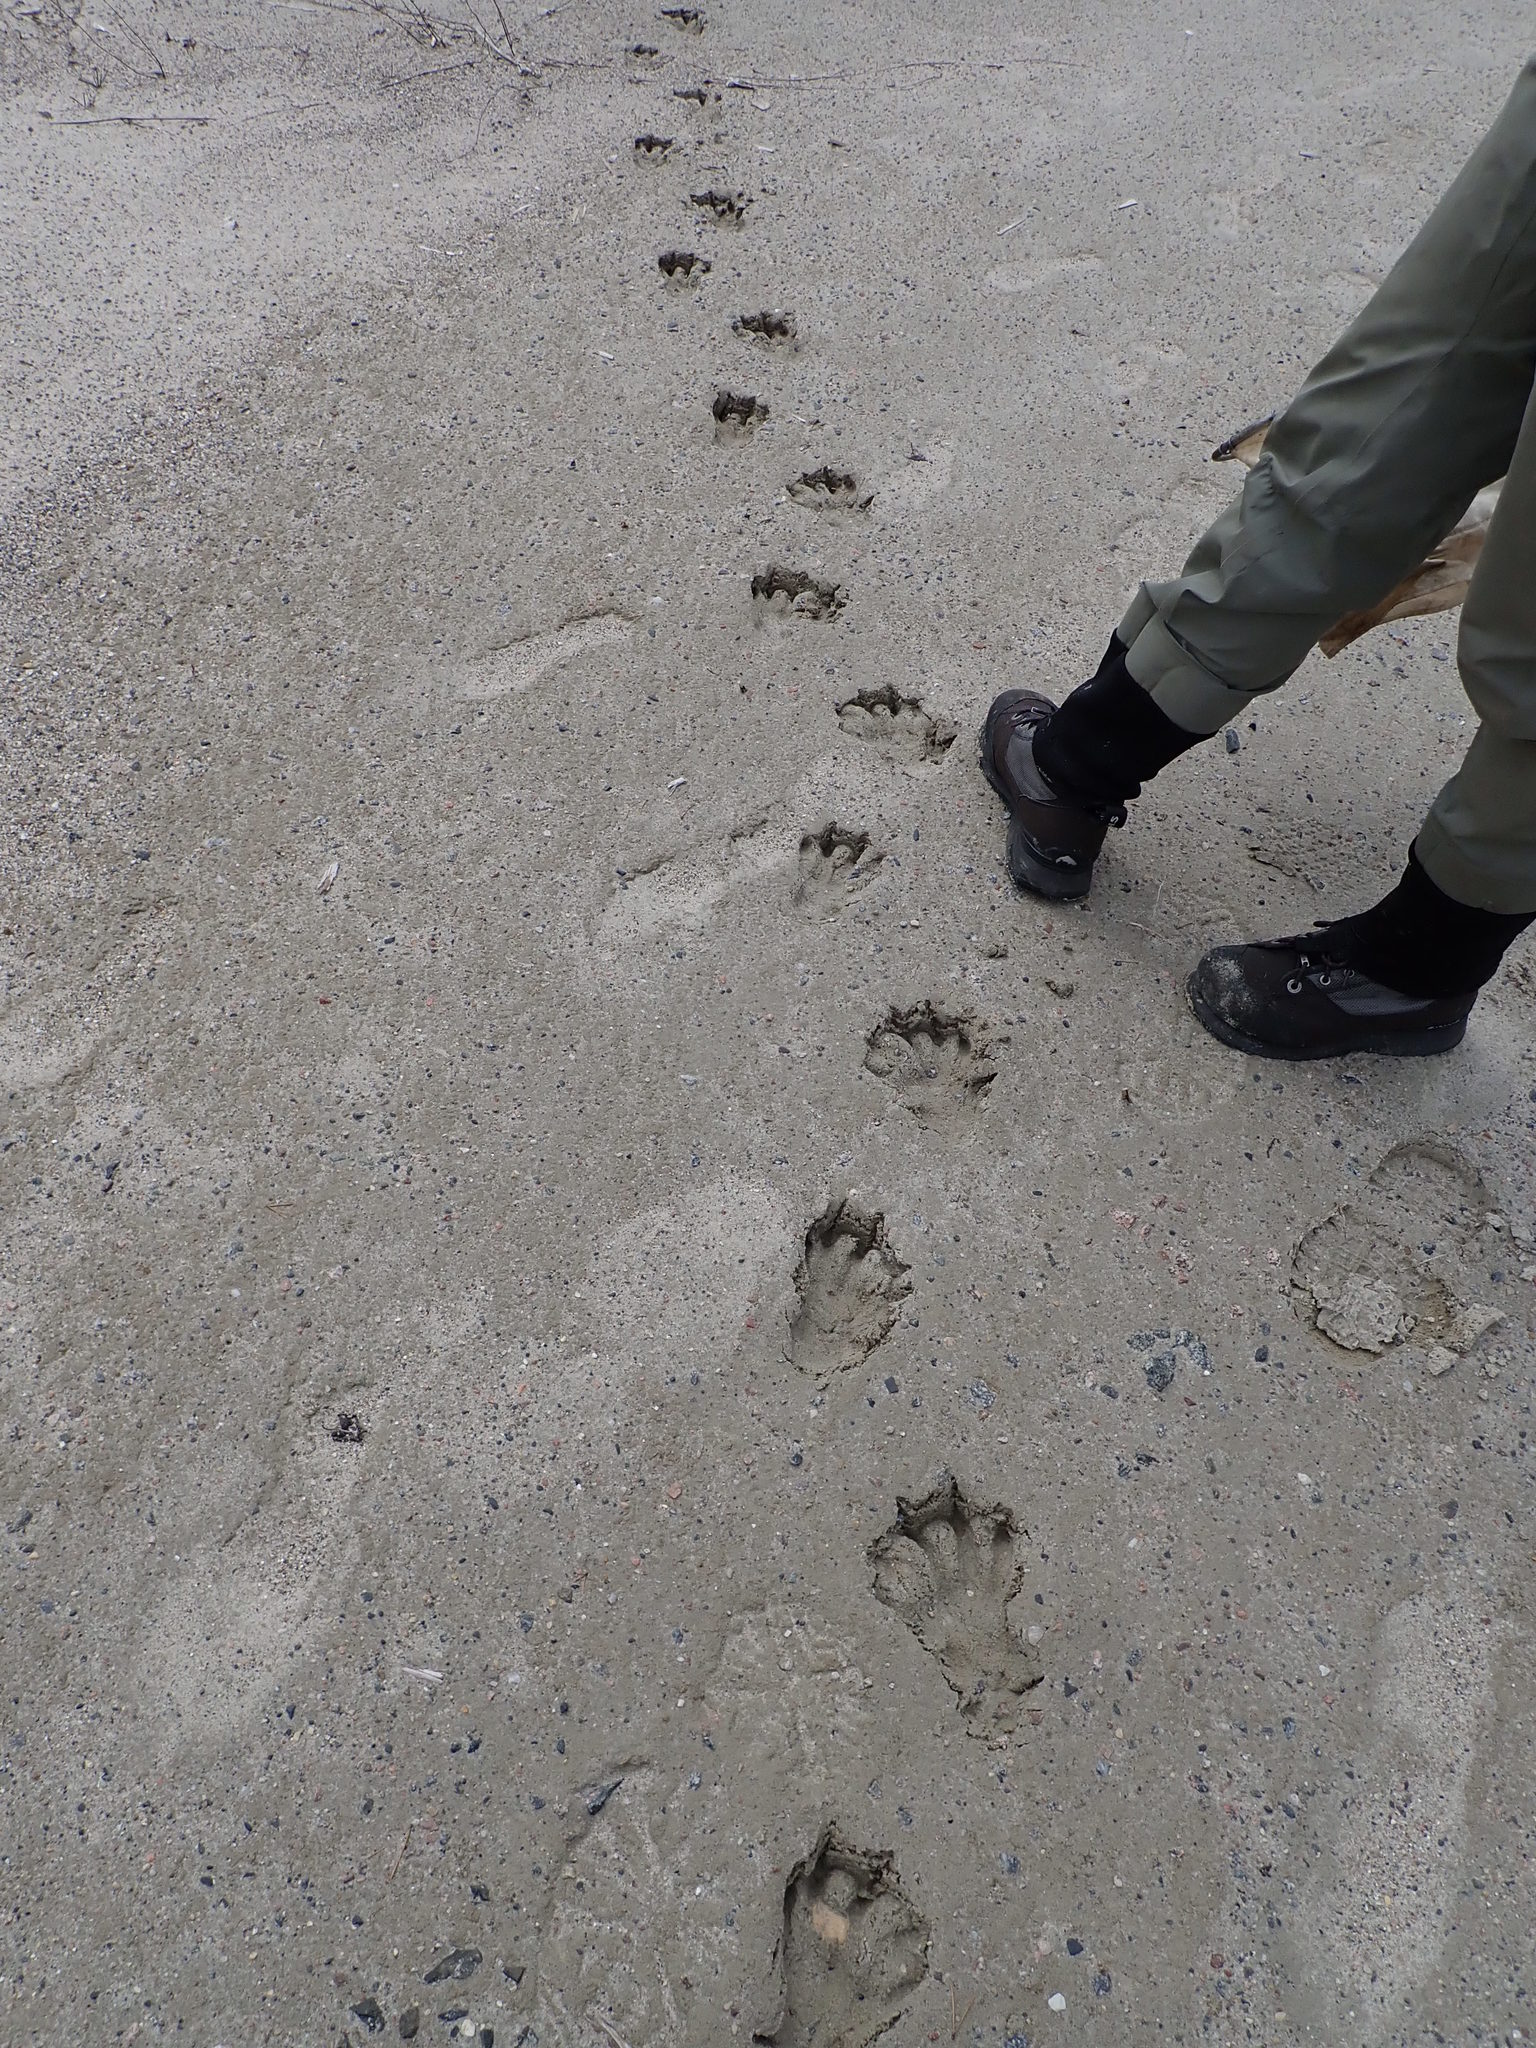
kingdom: Animalia
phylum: Chordata
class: Mammalia
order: Rodentia
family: Castoridae
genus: Castor
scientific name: Castor canadensis
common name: American beaver
